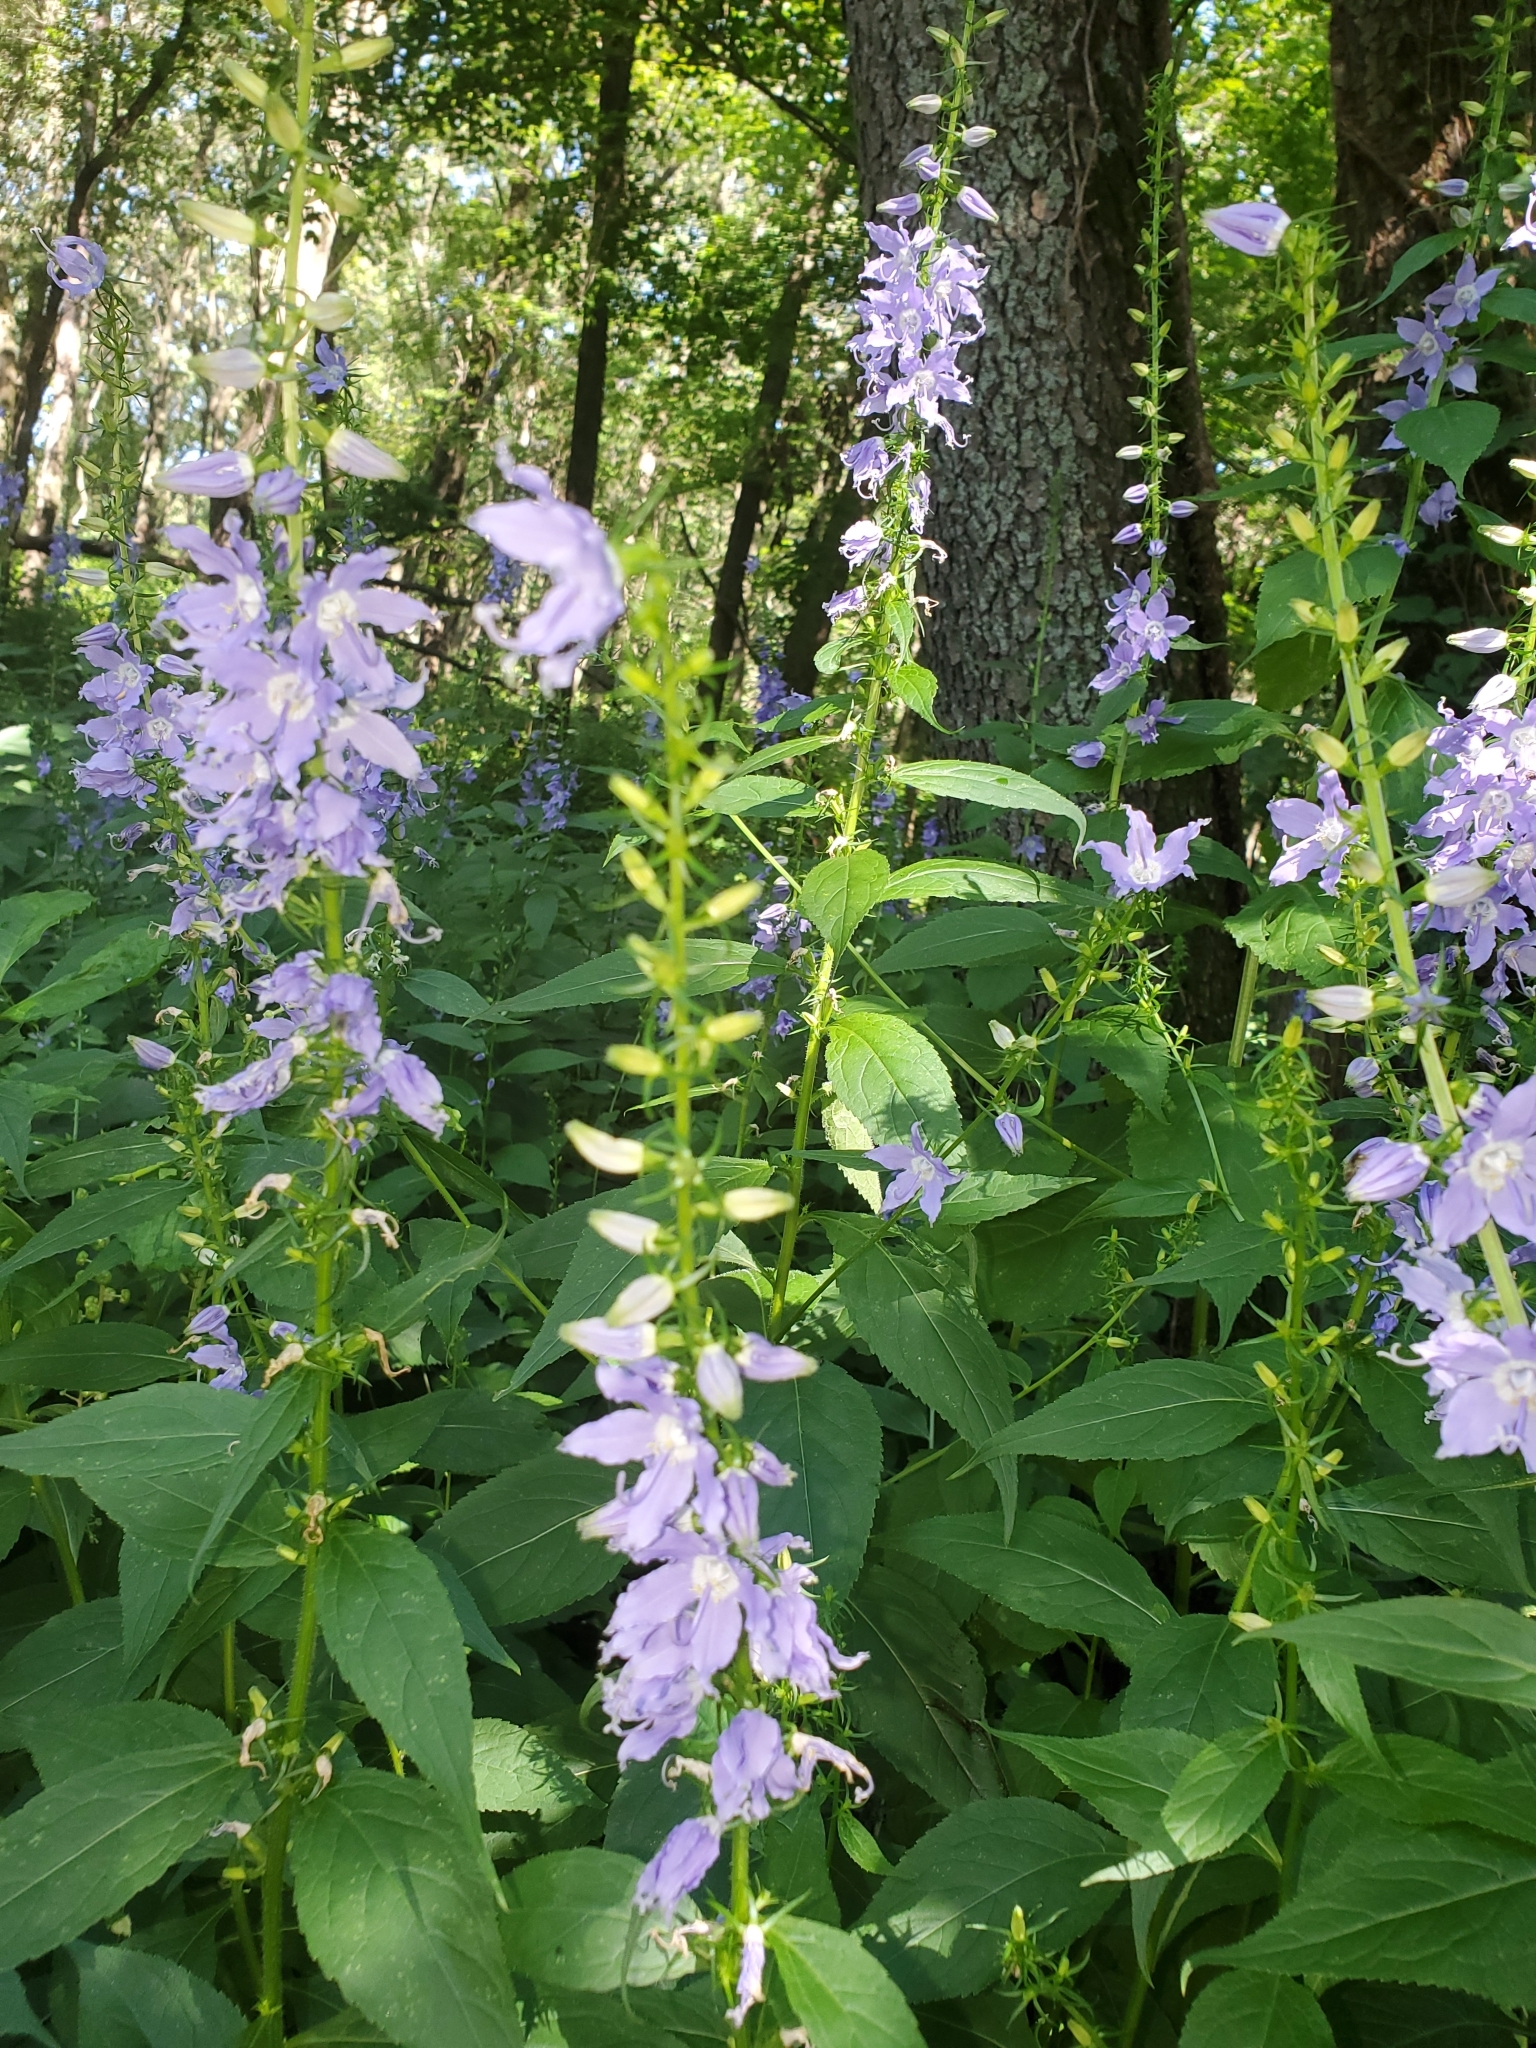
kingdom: Plantae
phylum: Tracheophyta
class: Magnoliopsida
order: Asterales
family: Campanulaceae
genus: Campanulastrum
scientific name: Campanulastrum americanum
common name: American bellflower
